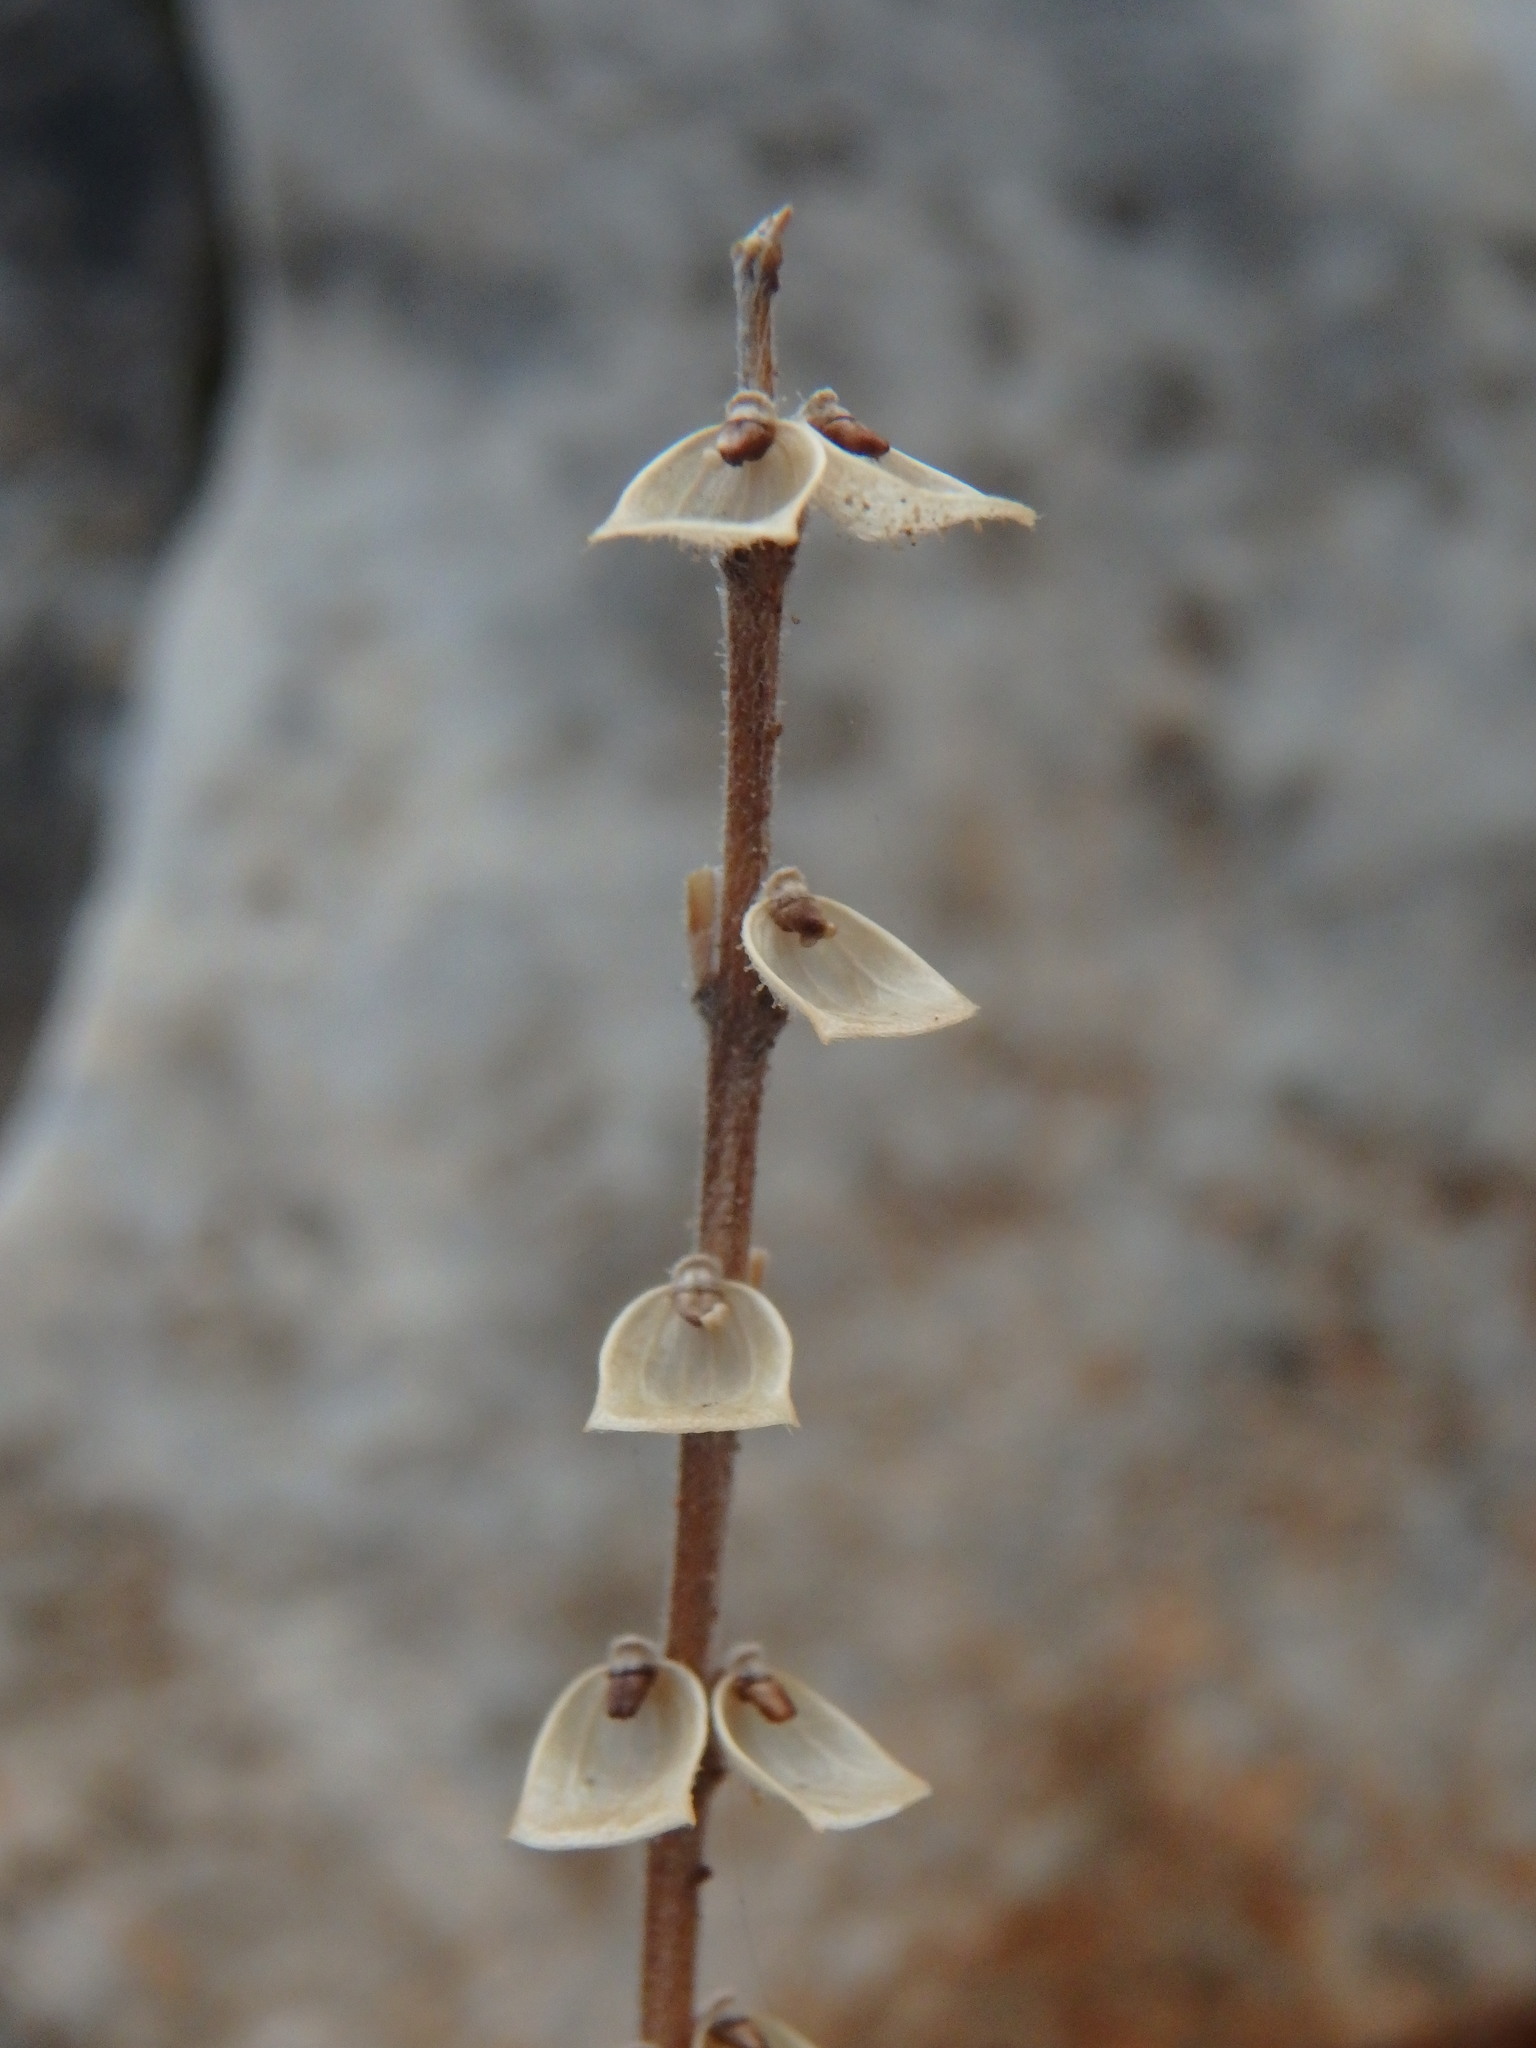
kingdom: Plantae
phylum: Tracheophyta
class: Magnoliopsida
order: Lamiales
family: Lamiaceae
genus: Scutellaria
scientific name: Scutellaria sibthorpii
